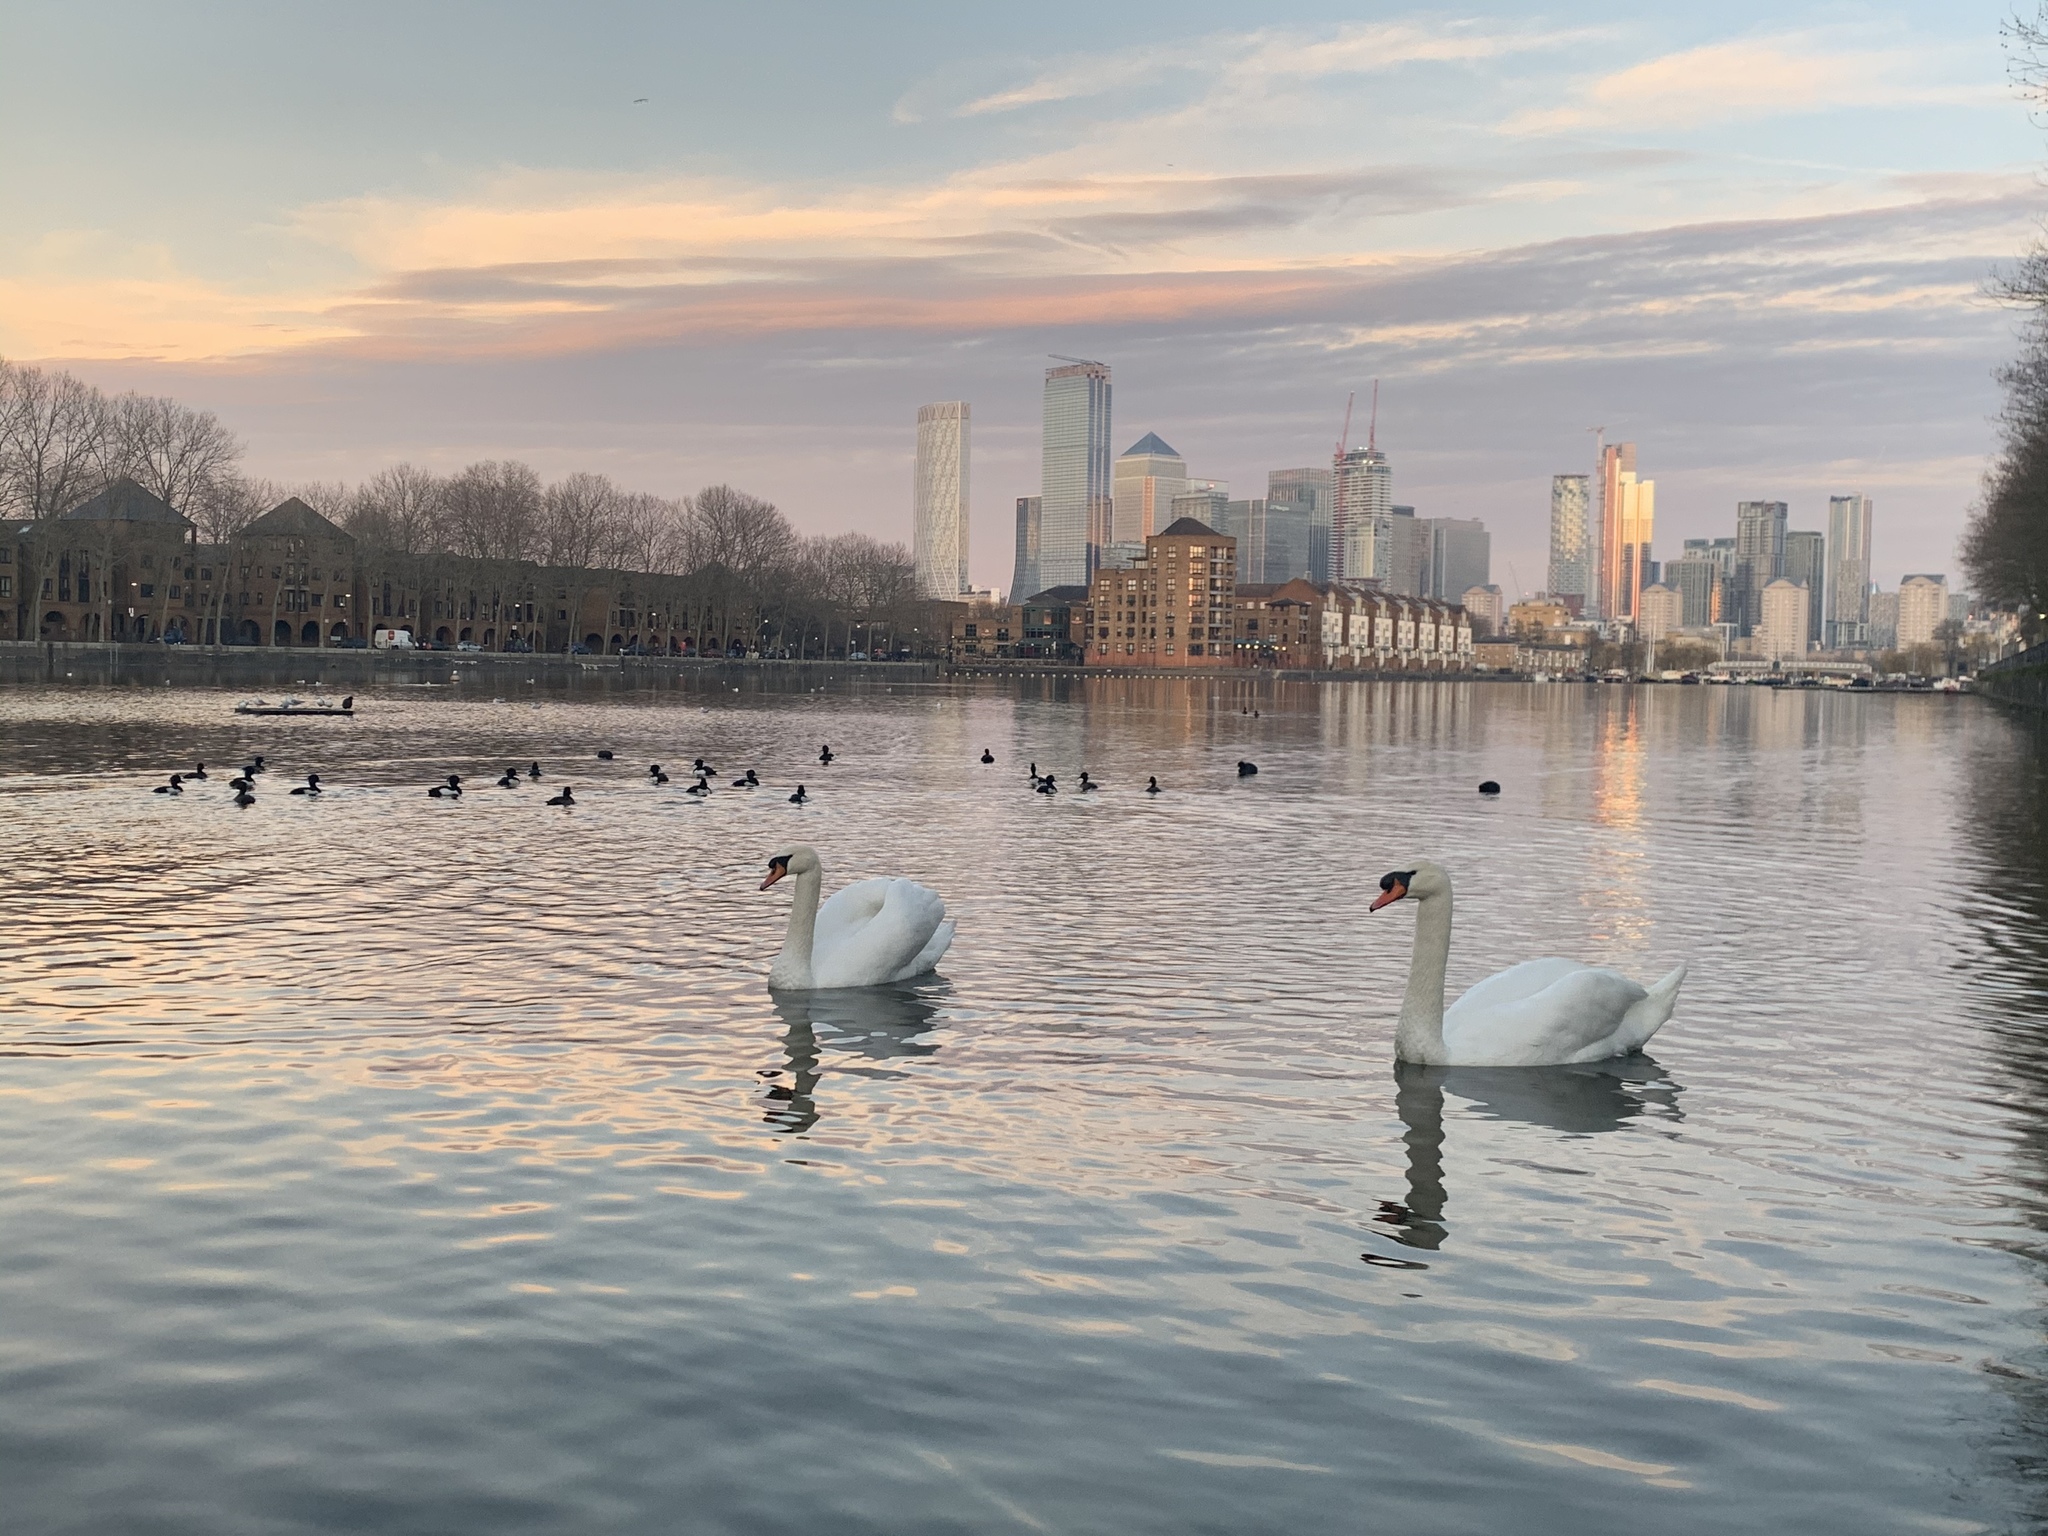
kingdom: Animalia
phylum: Chordata
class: Aves
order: Anseriformes
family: Anatidae
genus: Cygnus
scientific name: Cygnus olor
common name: Mute swan
